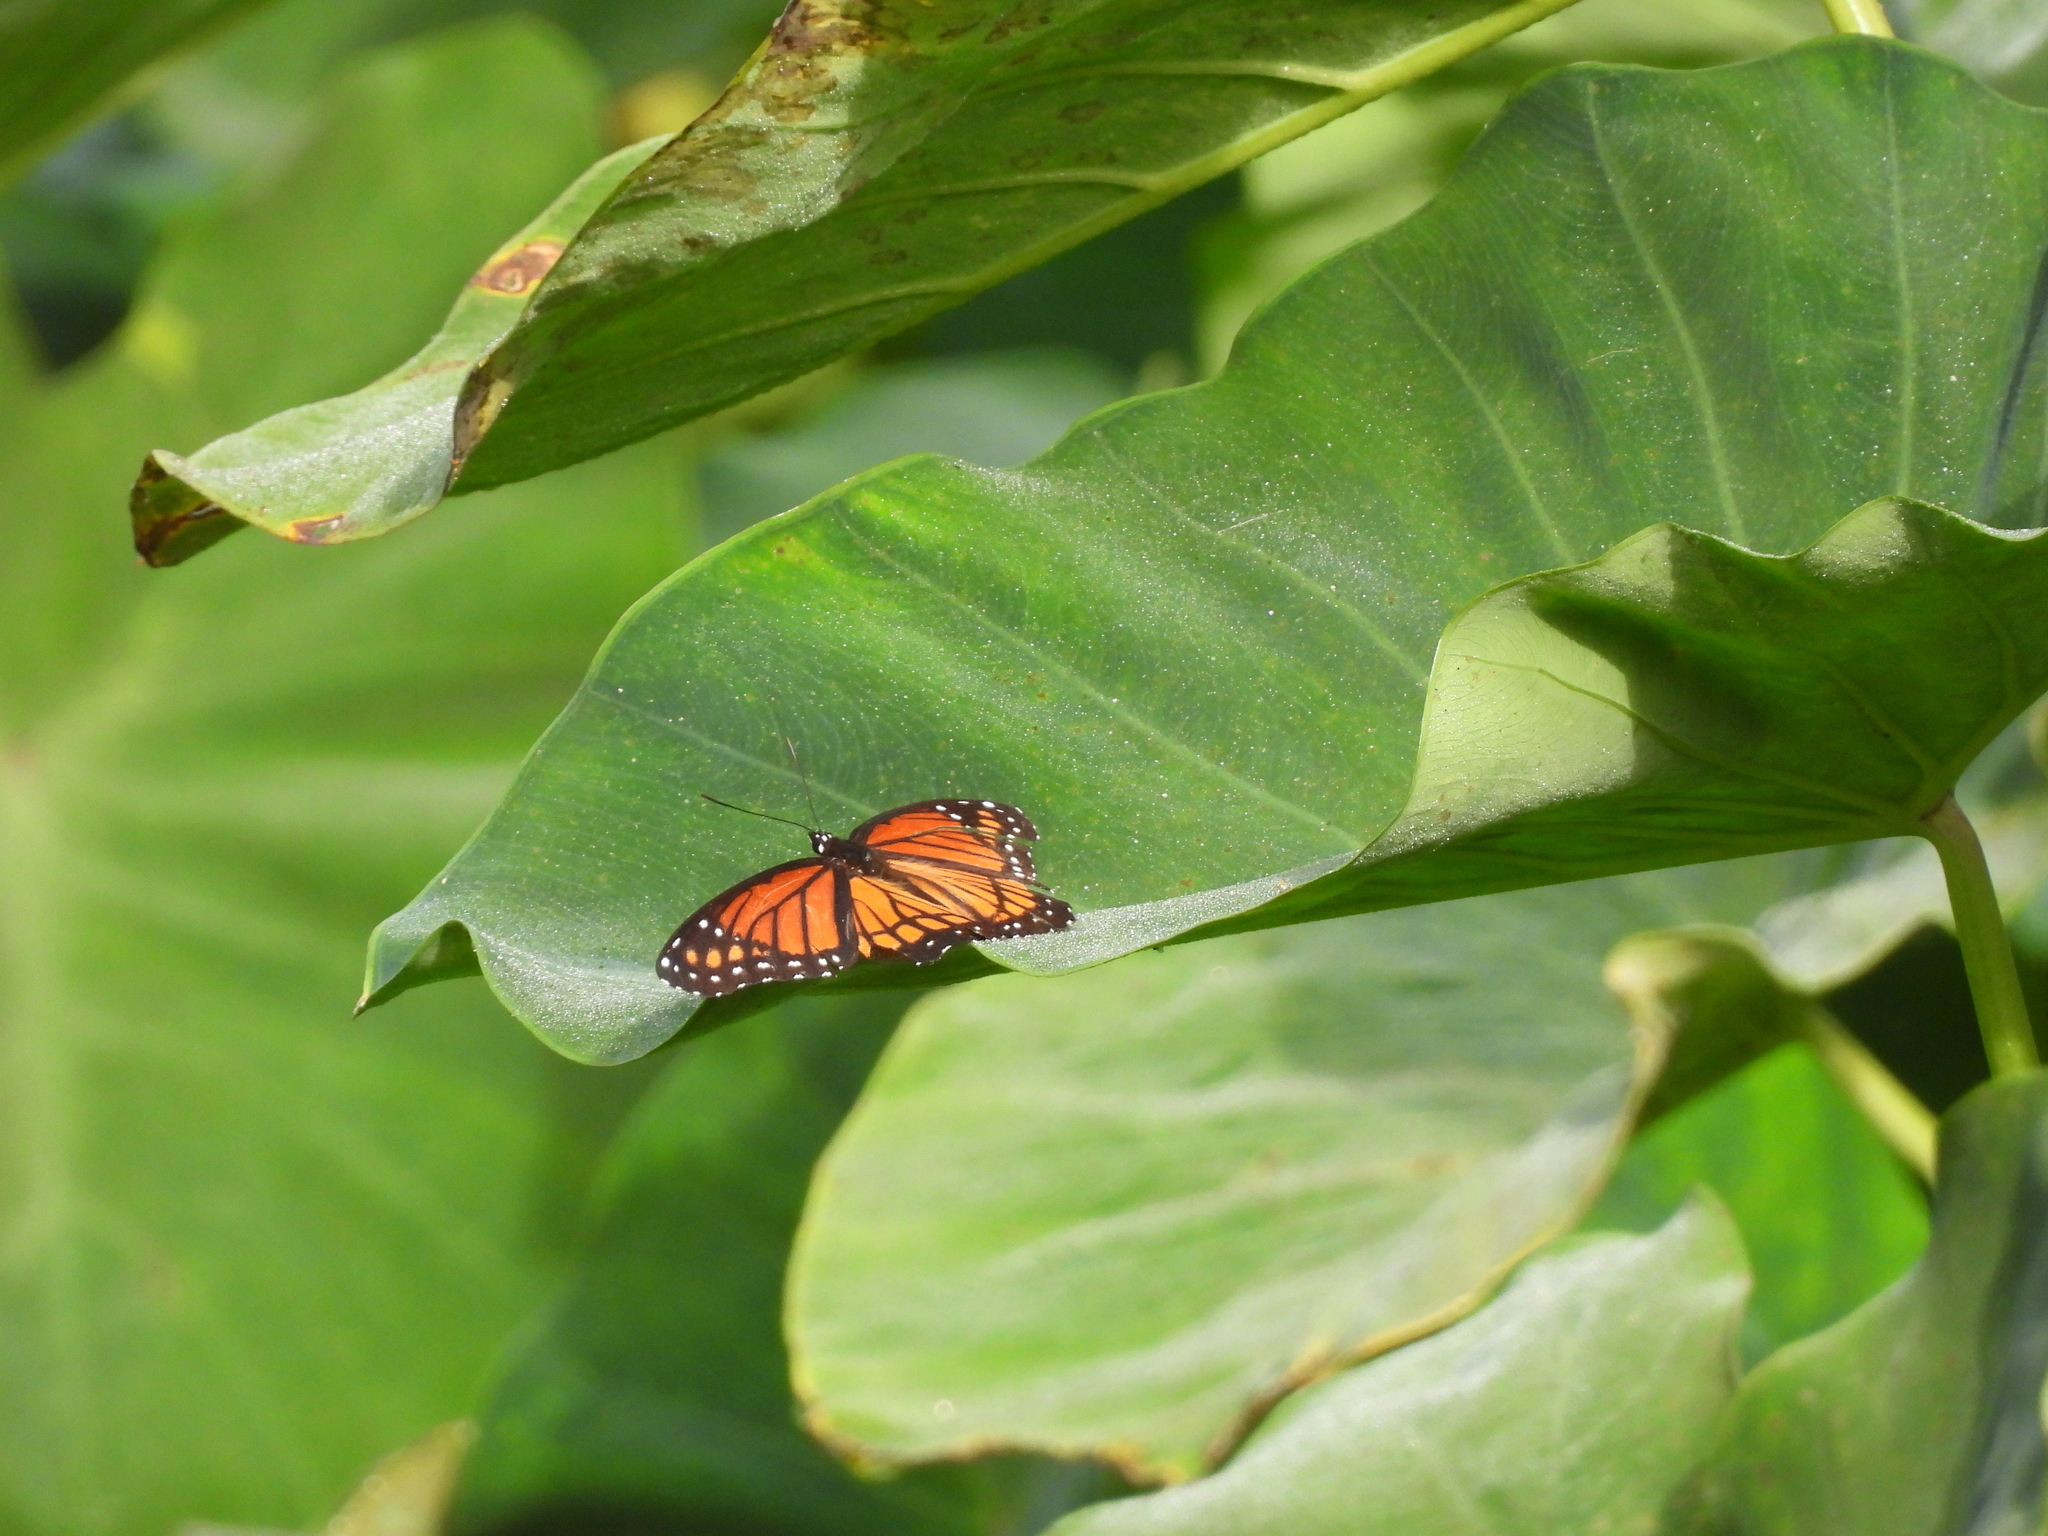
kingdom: Animalia
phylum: Arthropoda
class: Insecta
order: Lepidoptera
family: Nymphalidae
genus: Limenitis
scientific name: Limenitis archippus
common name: Viceroy
